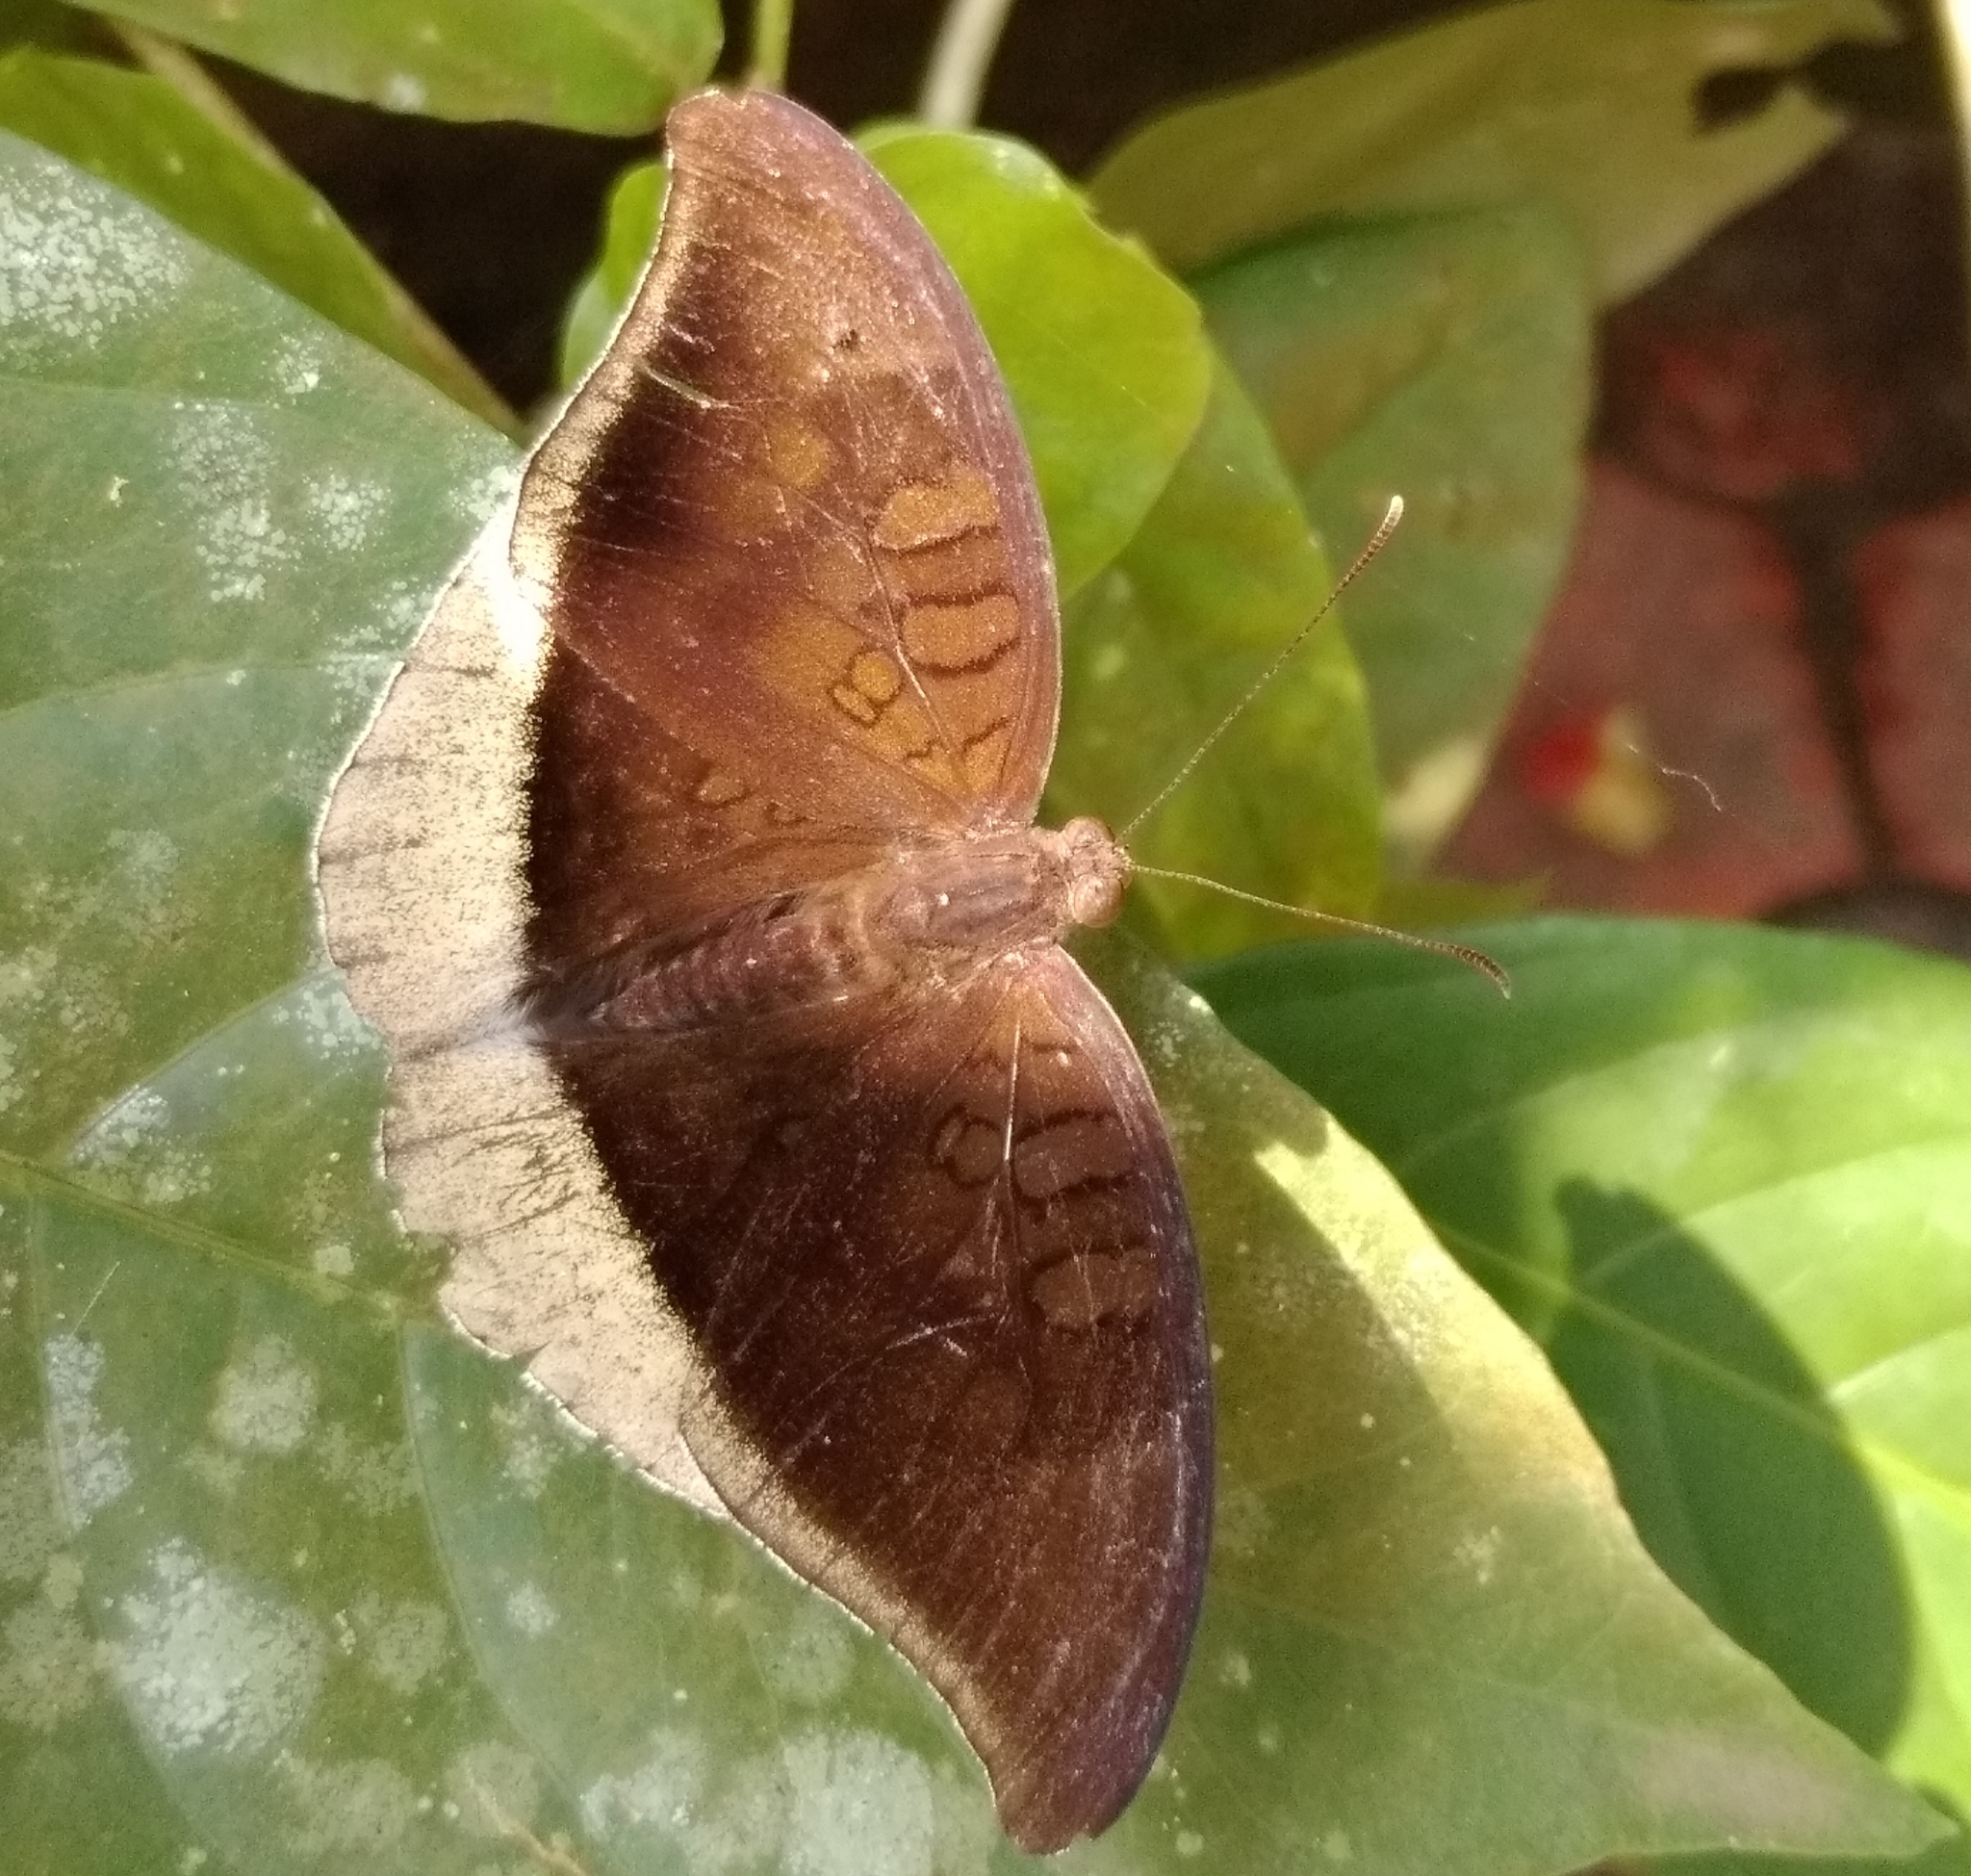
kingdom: Animalia
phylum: Arthropoda
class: Insecta
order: Lepidoptera
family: Nymphalidae
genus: Tanaecia
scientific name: Tanaecia lepidea
